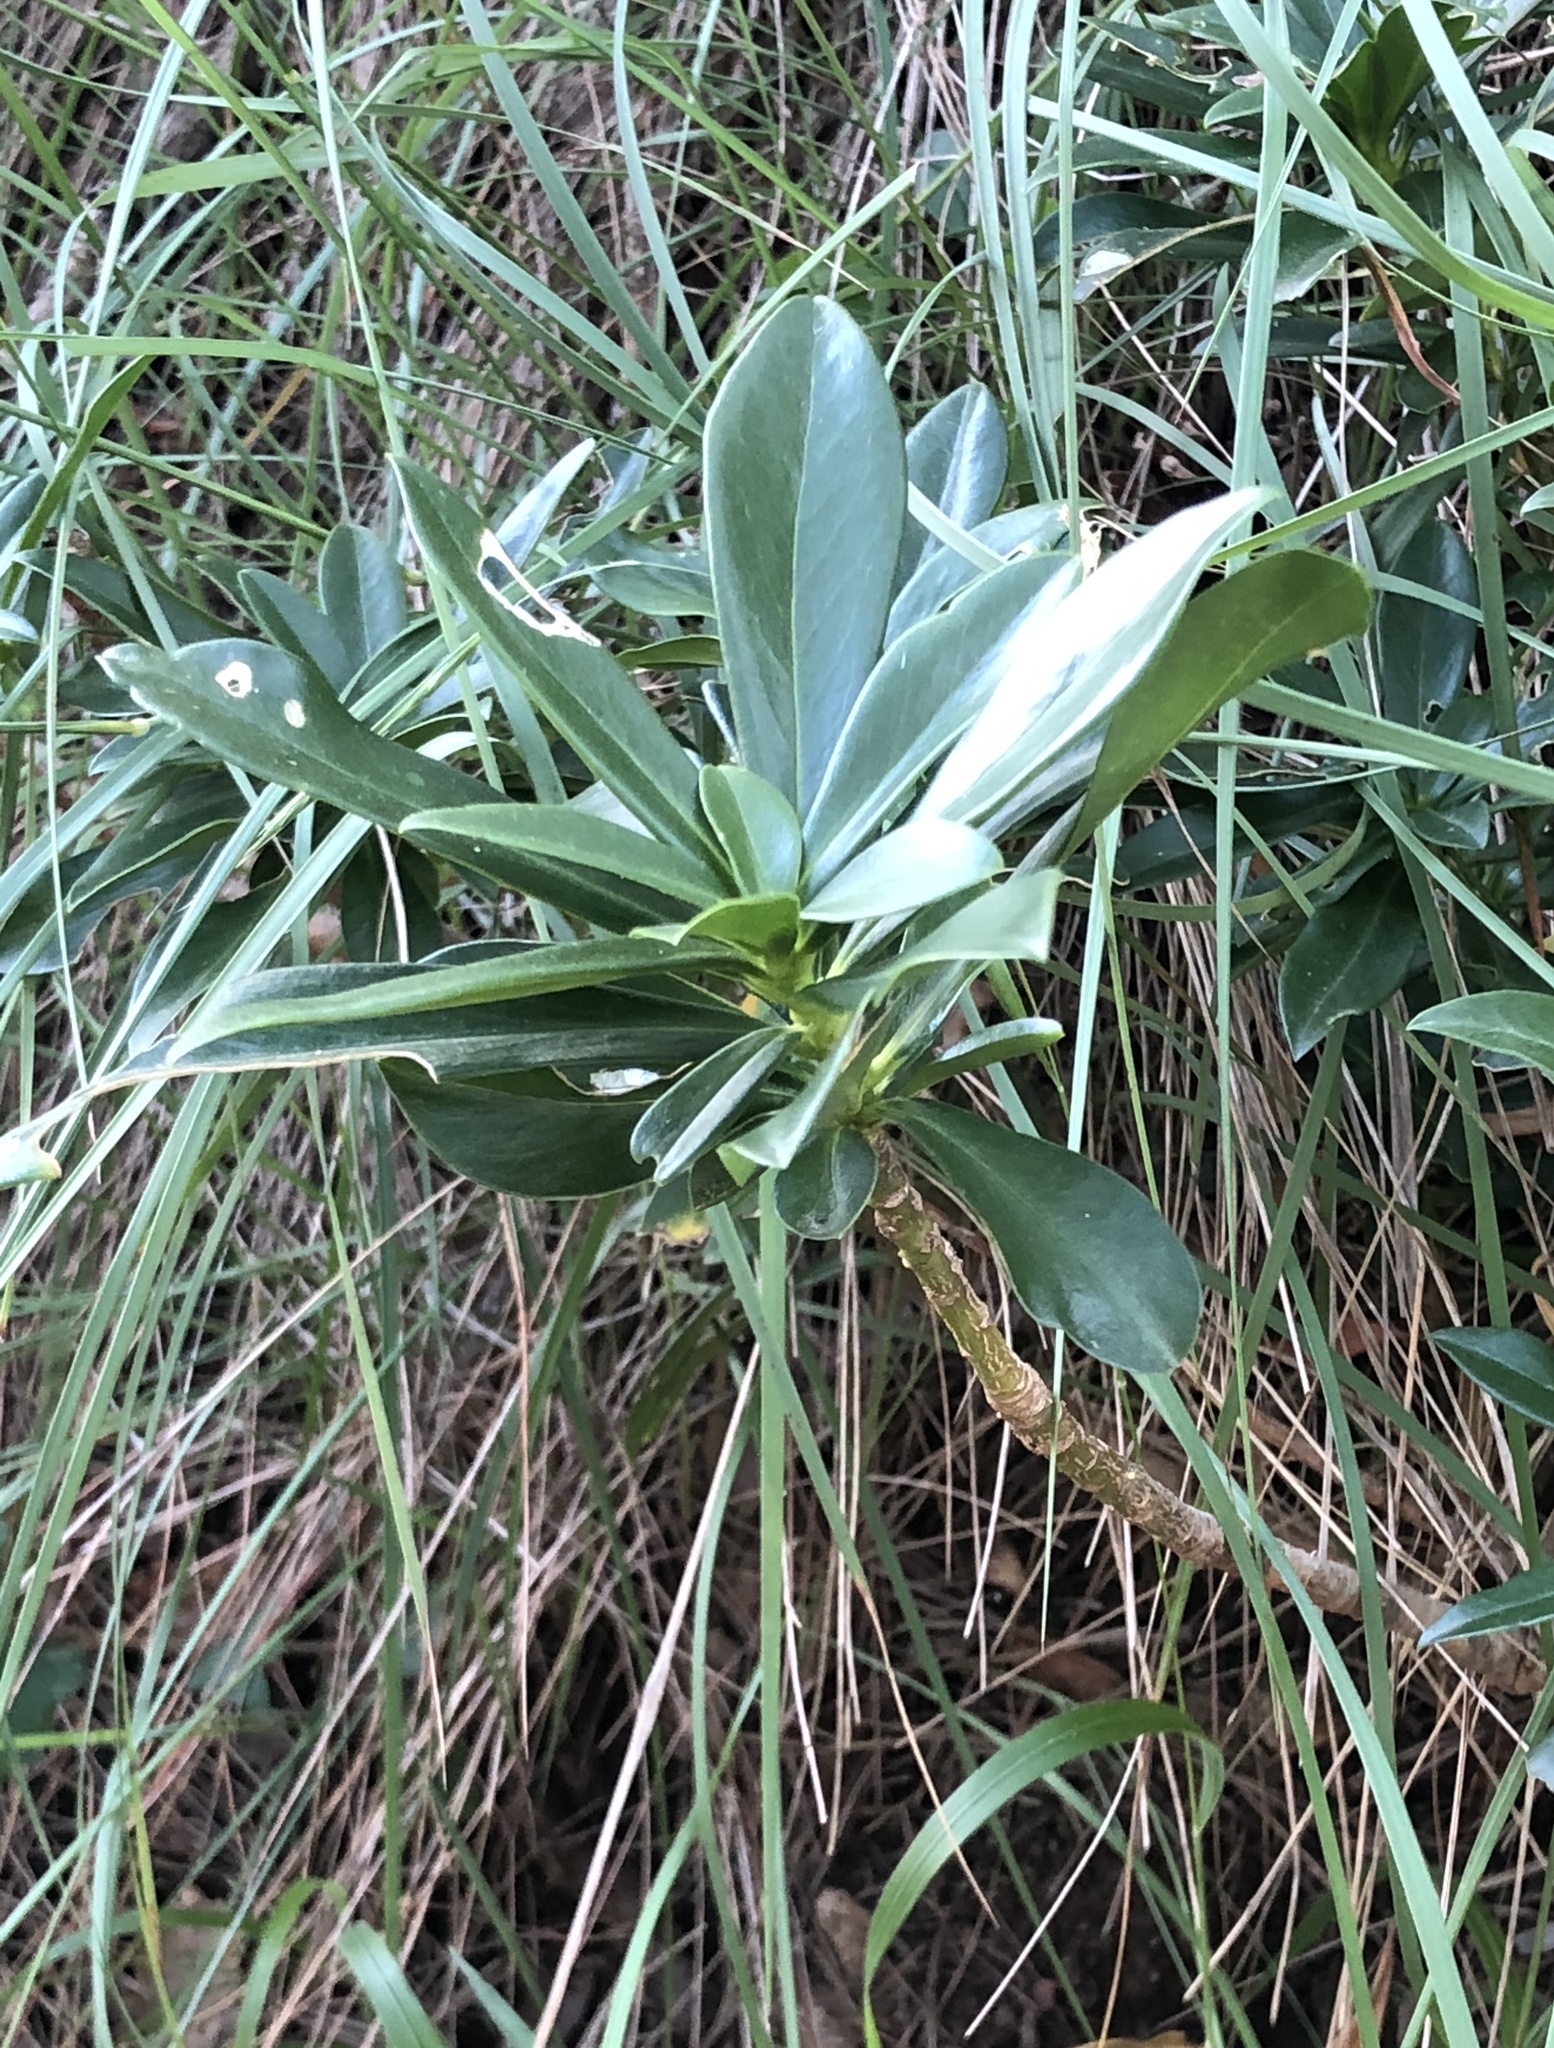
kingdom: Plantae
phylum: Tracheophyta
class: Magnoliopsida
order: Malvales
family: Thymelaeaceae
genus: Daphne
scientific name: Daphne laureola
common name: Spurge-laurel
